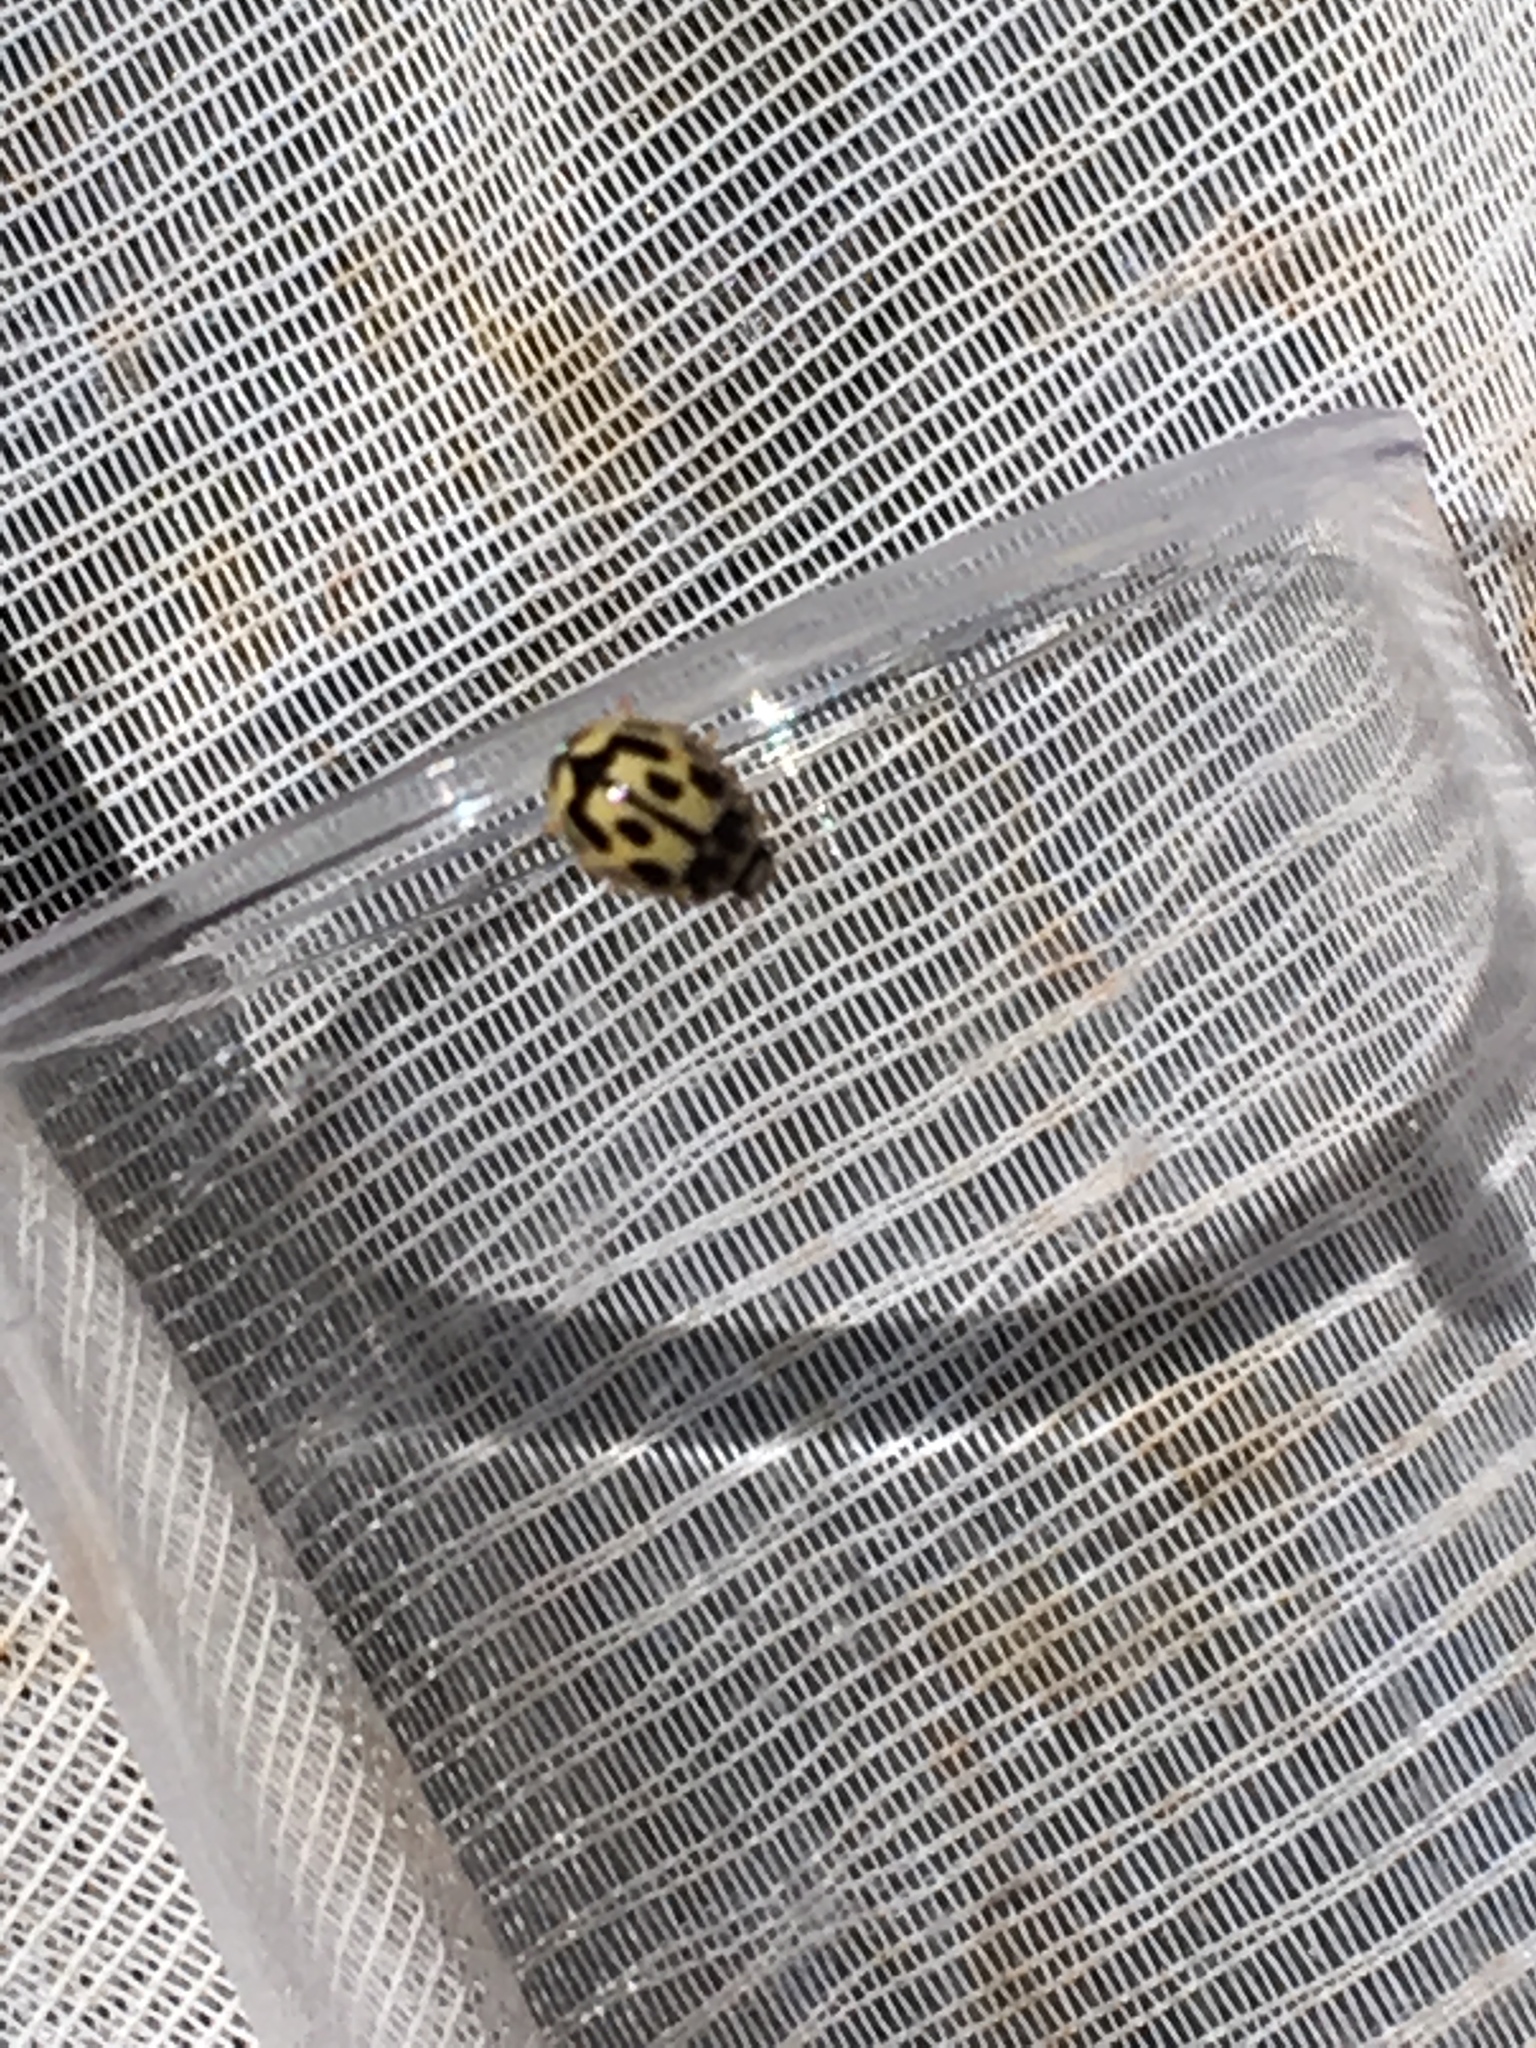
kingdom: Animalia
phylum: Arthropoda
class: Insecta
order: Coleoptera
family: Coccinellidae
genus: Propylaea
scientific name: Propylaea quatuordecimpunctata
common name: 14-spotted ladybird beetle
